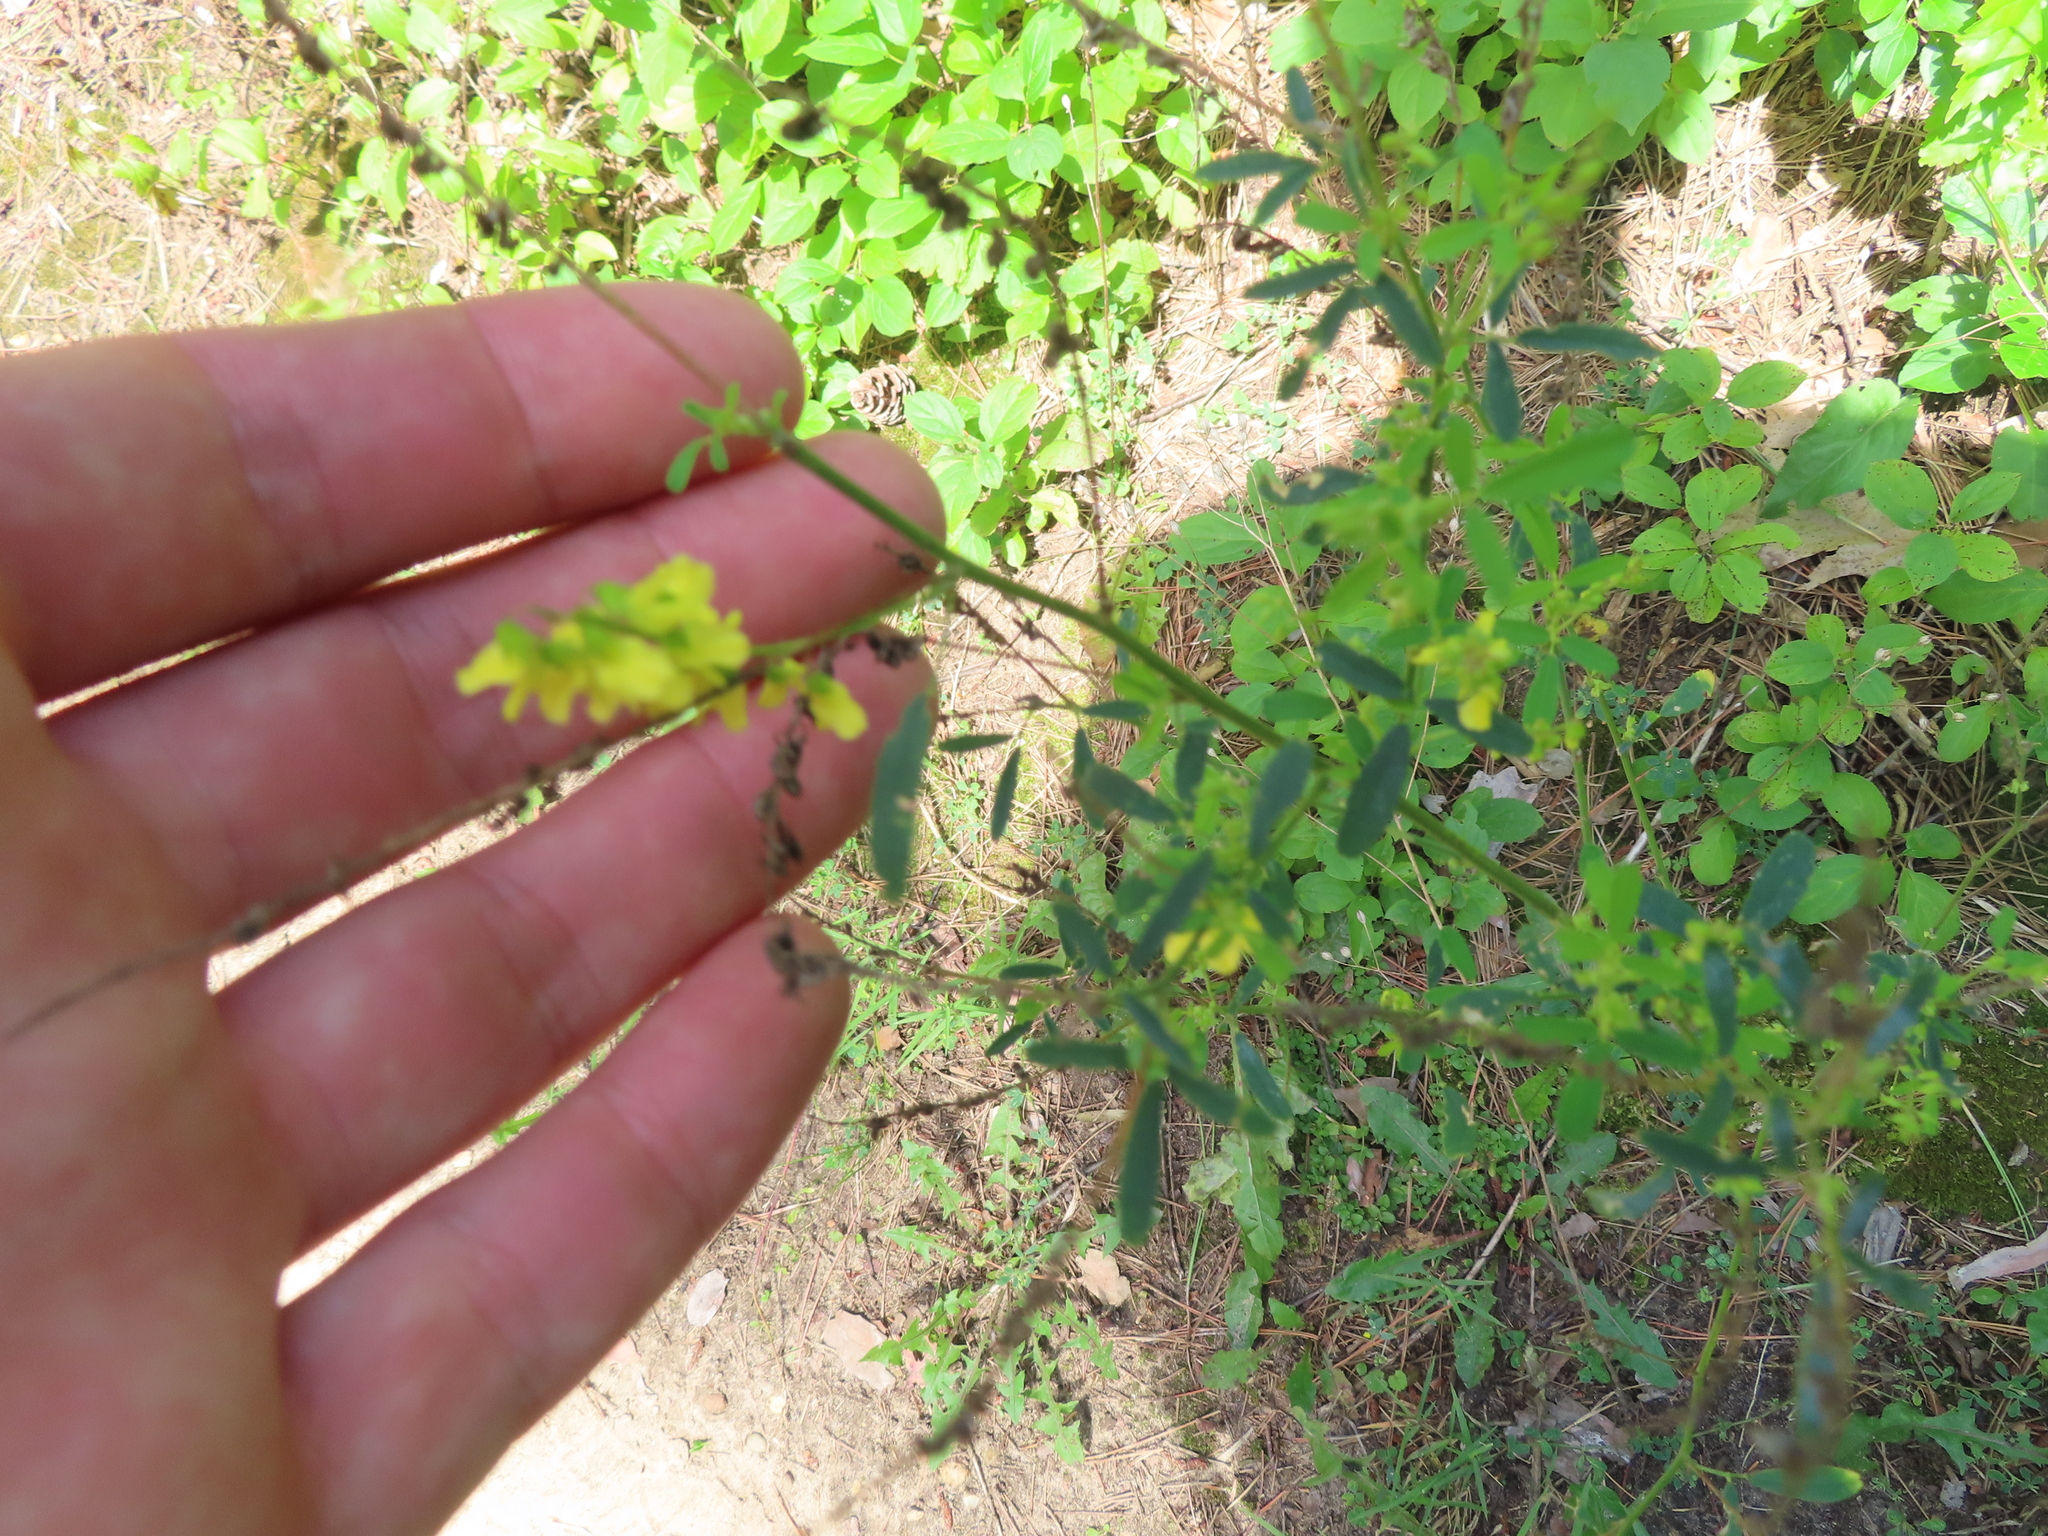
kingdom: Plantae
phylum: Tracheophyta
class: Magnoliopsida
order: Fabales
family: Fabaceae
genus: Melilotus
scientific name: Melilotus officinalis
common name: Sweetclover
